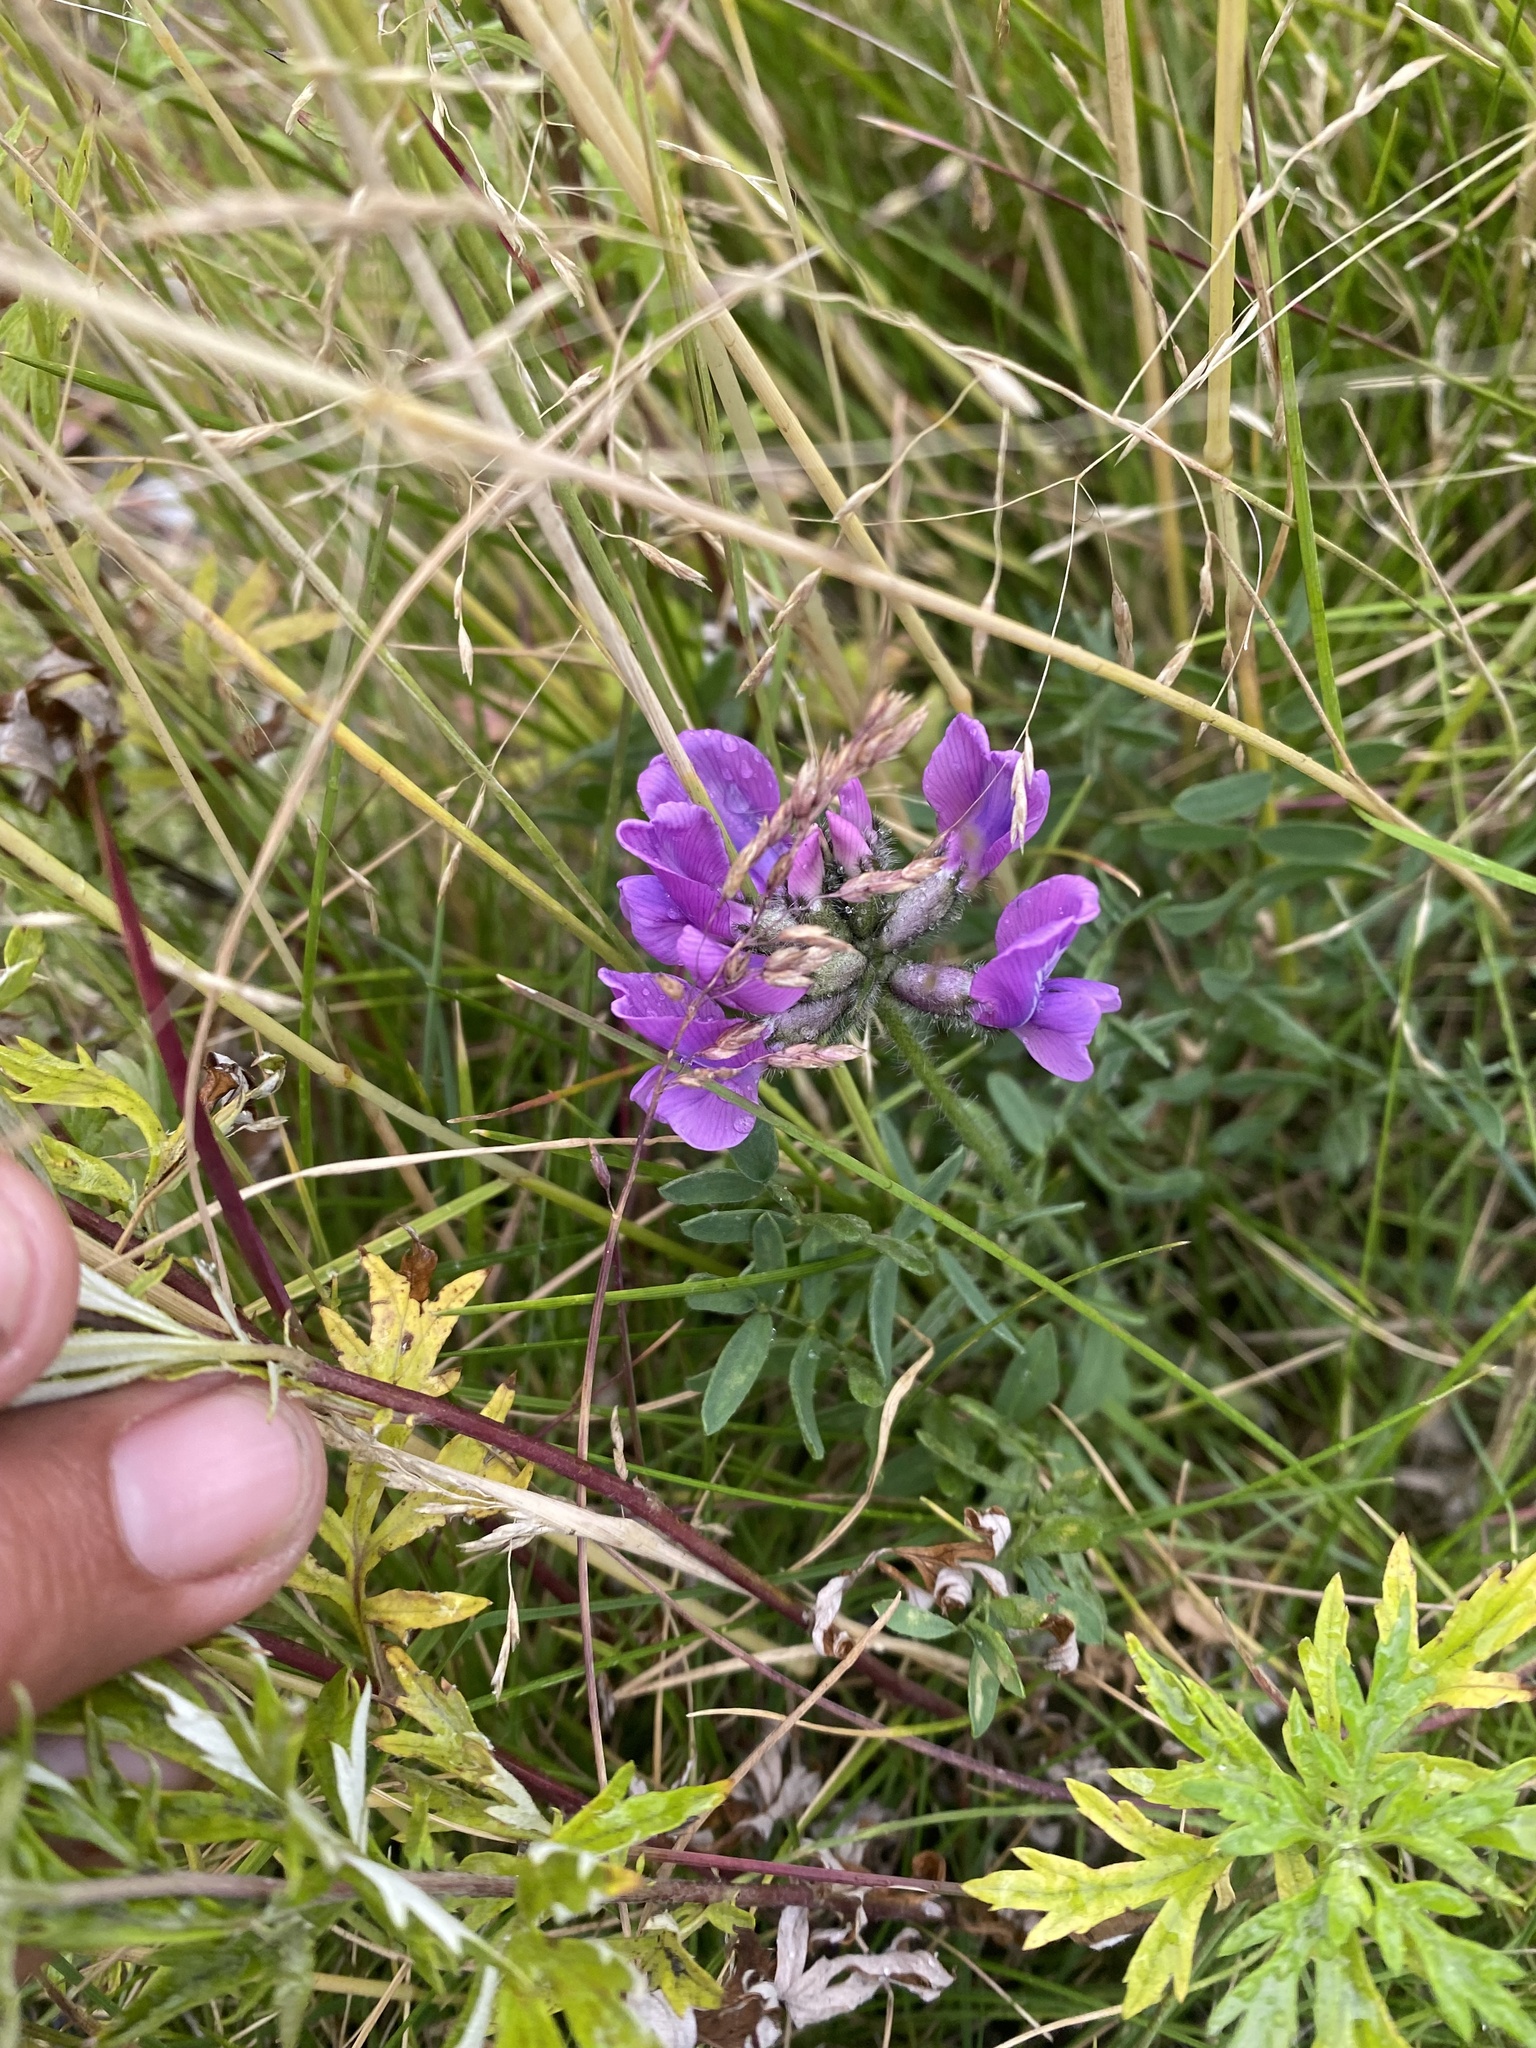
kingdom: Plantae
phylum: Tracheophyta
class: Magnoliopsida
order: Fabales
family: Fabaceae
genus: Oxytropis
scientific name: Oxytropis arctica
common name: Arctic locoweed
